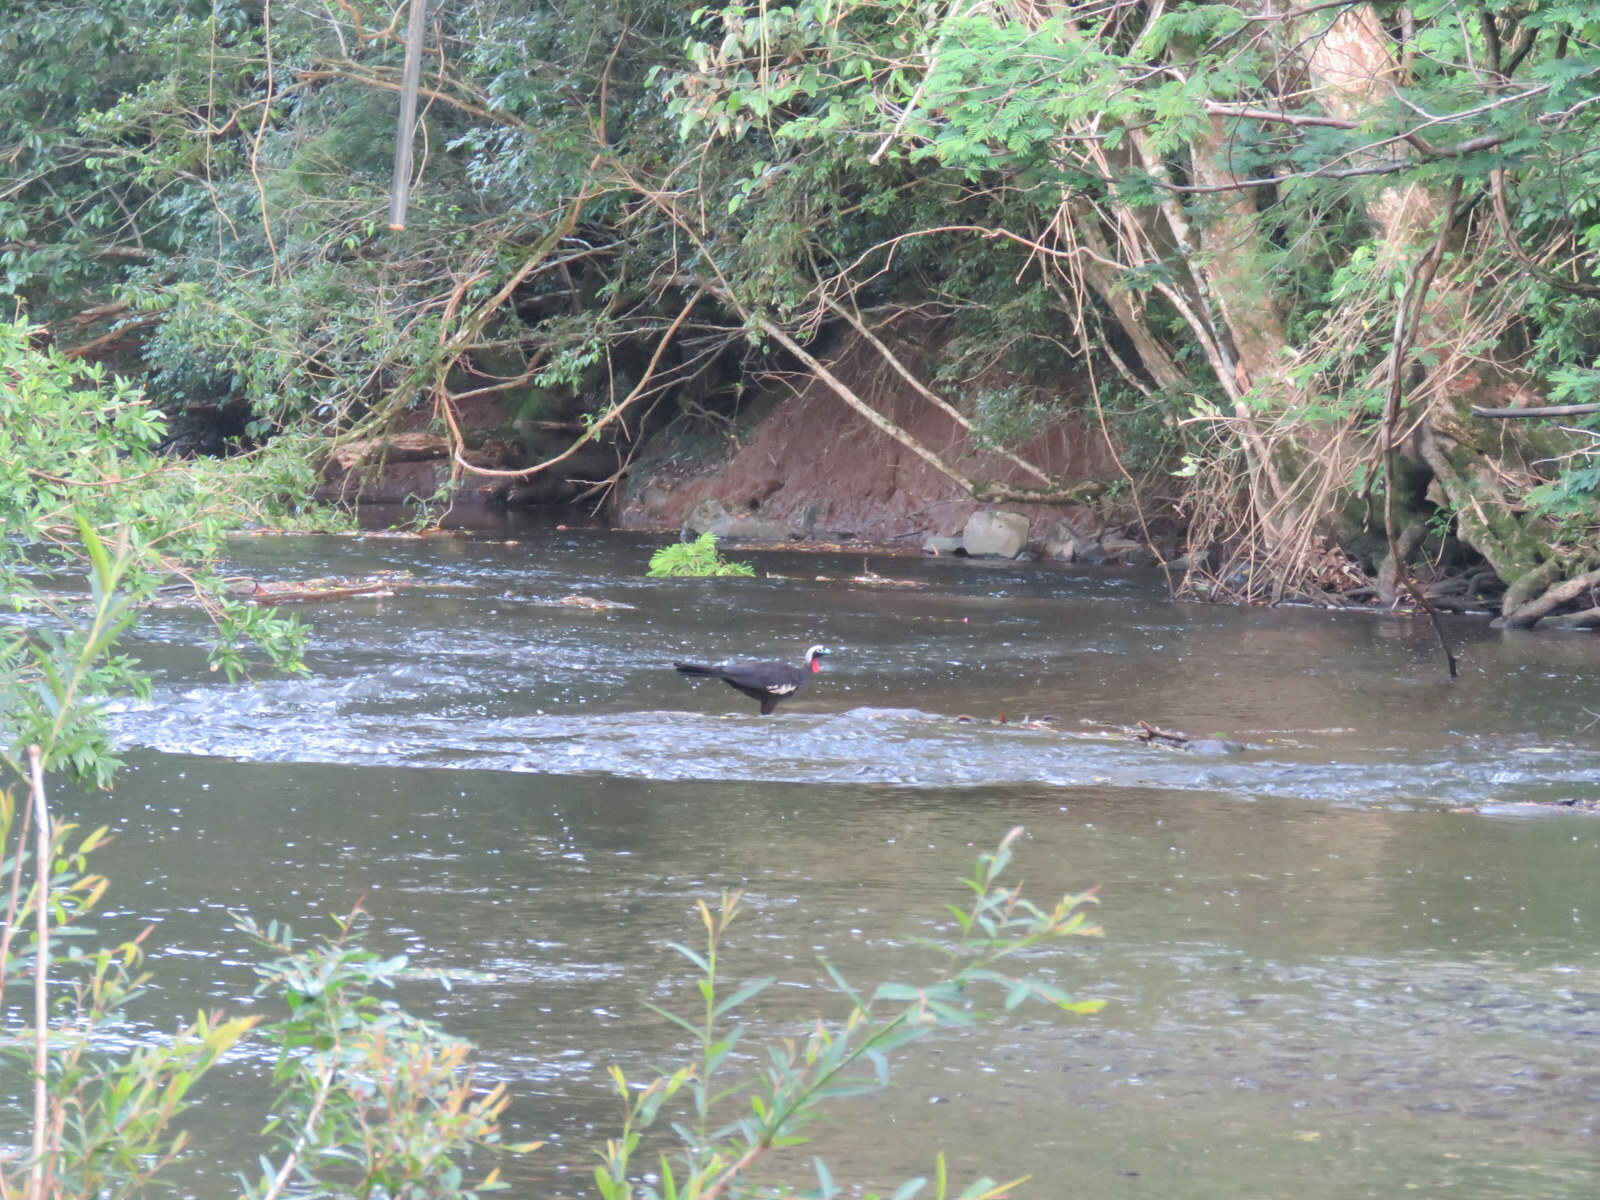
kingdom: Animalia
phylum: Chordata
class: Aves
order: Galliformes
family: Cracidae
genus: Pipile
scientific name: Pipile jacutinga
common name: Black-fronted piping-guan
